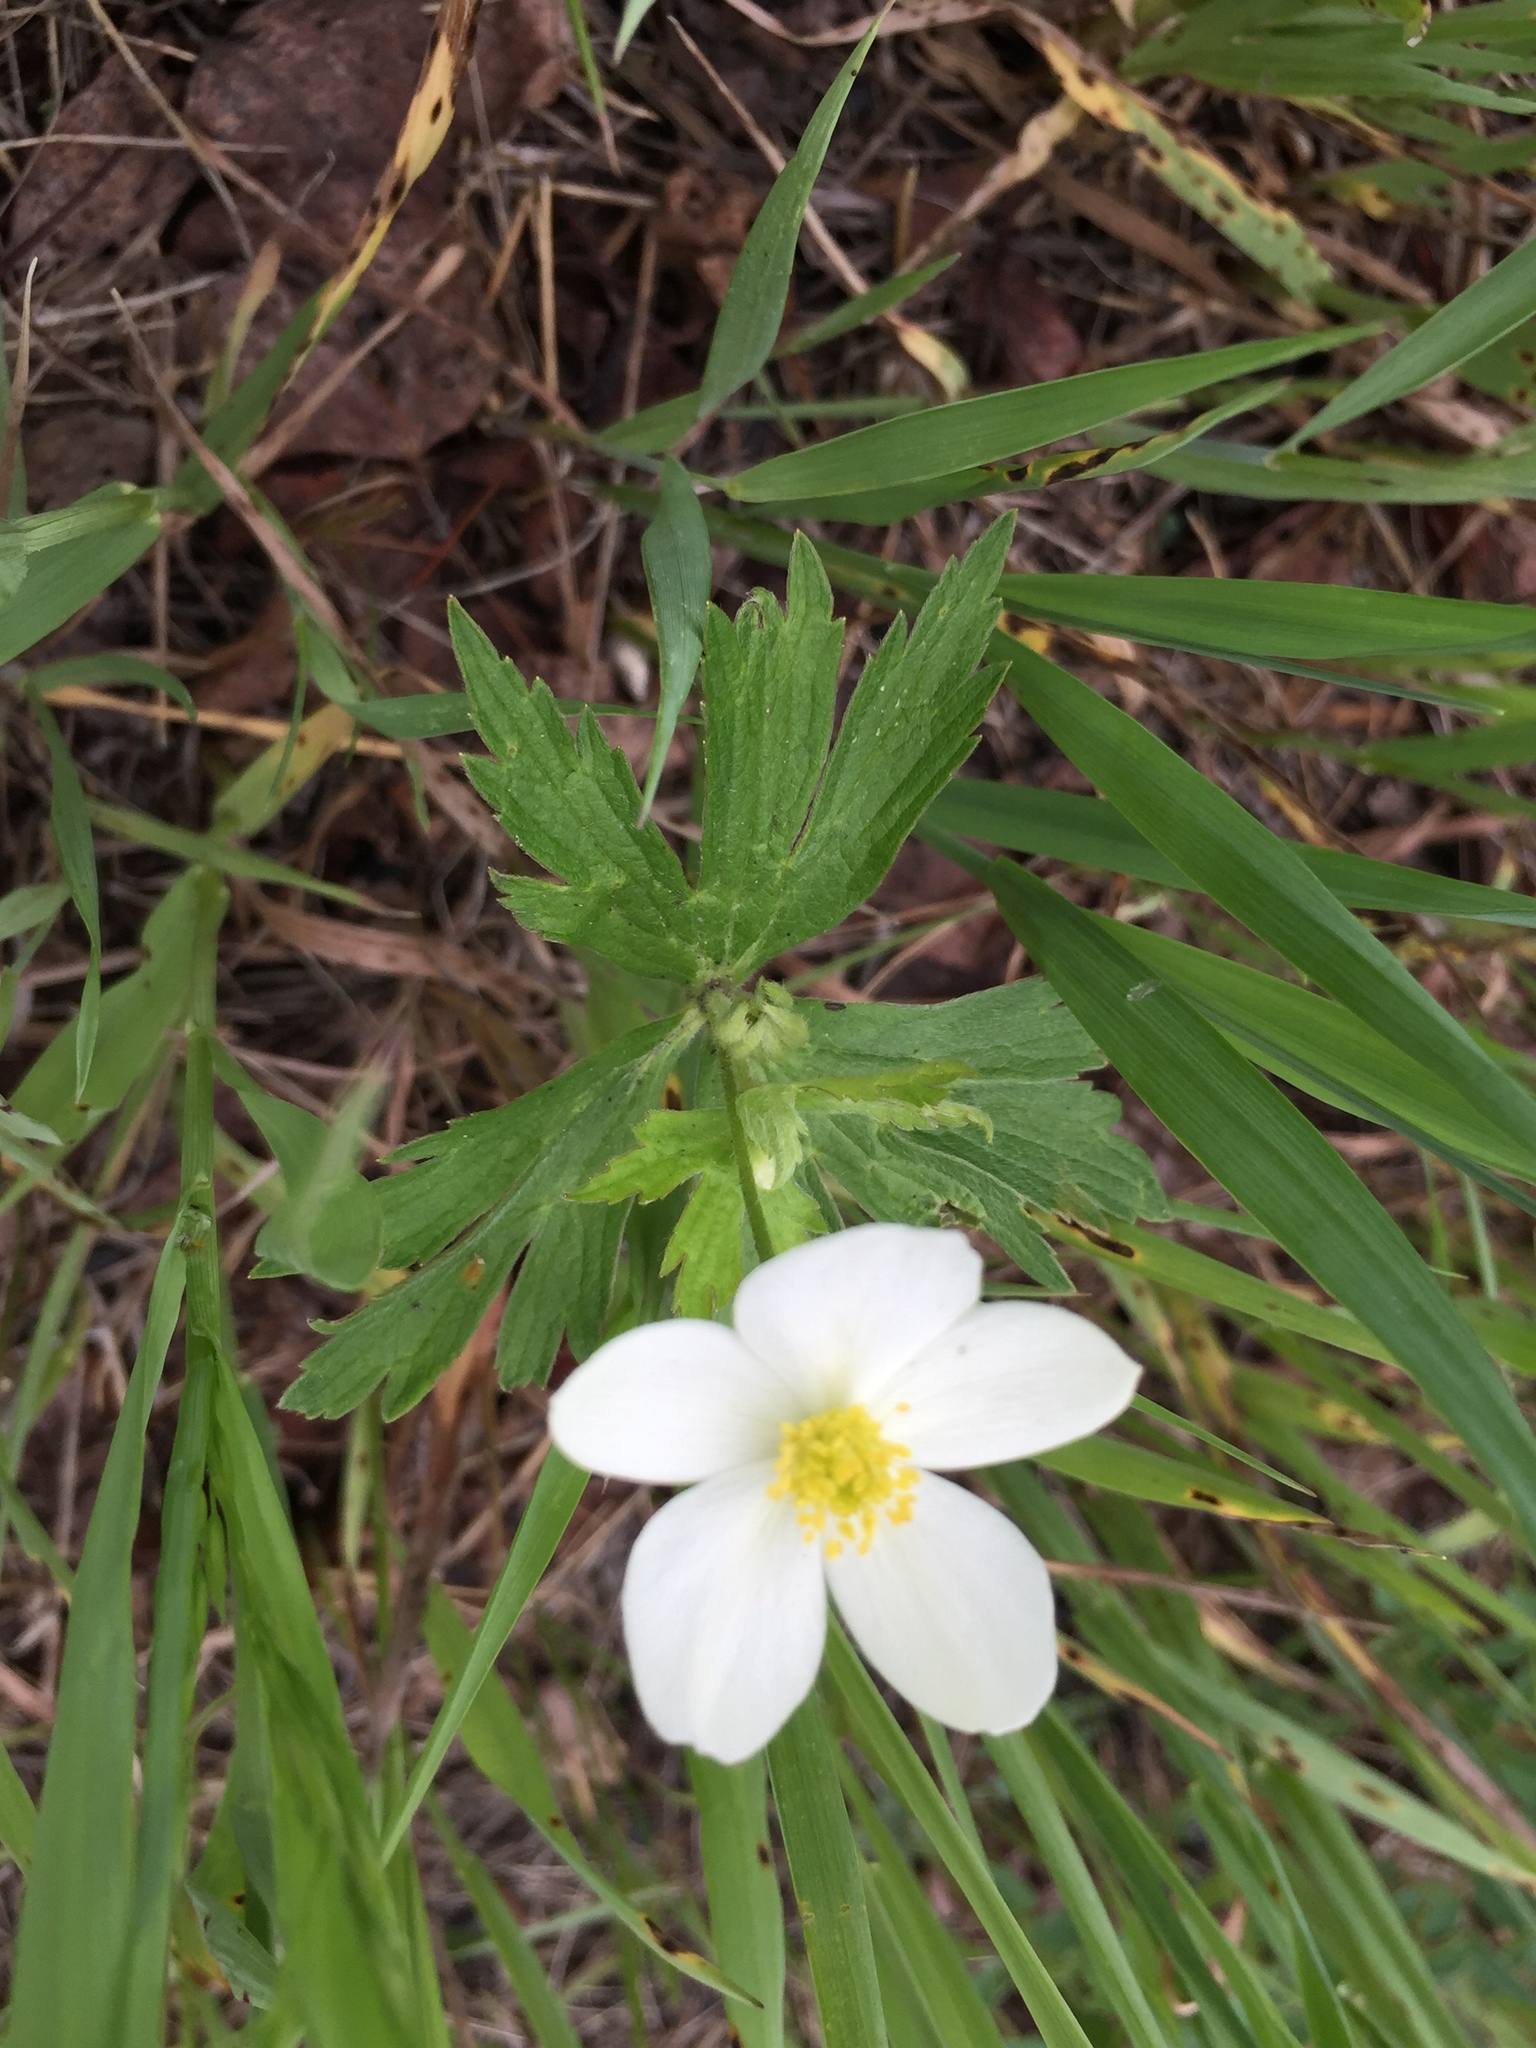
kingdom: Plantae
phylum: Tracheophyta
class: Magnoliopsida
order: Ranunculales
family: Ranunculaceae
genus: Anemonastrum
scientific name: Anemonastrum canadense
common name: Canada anemone
